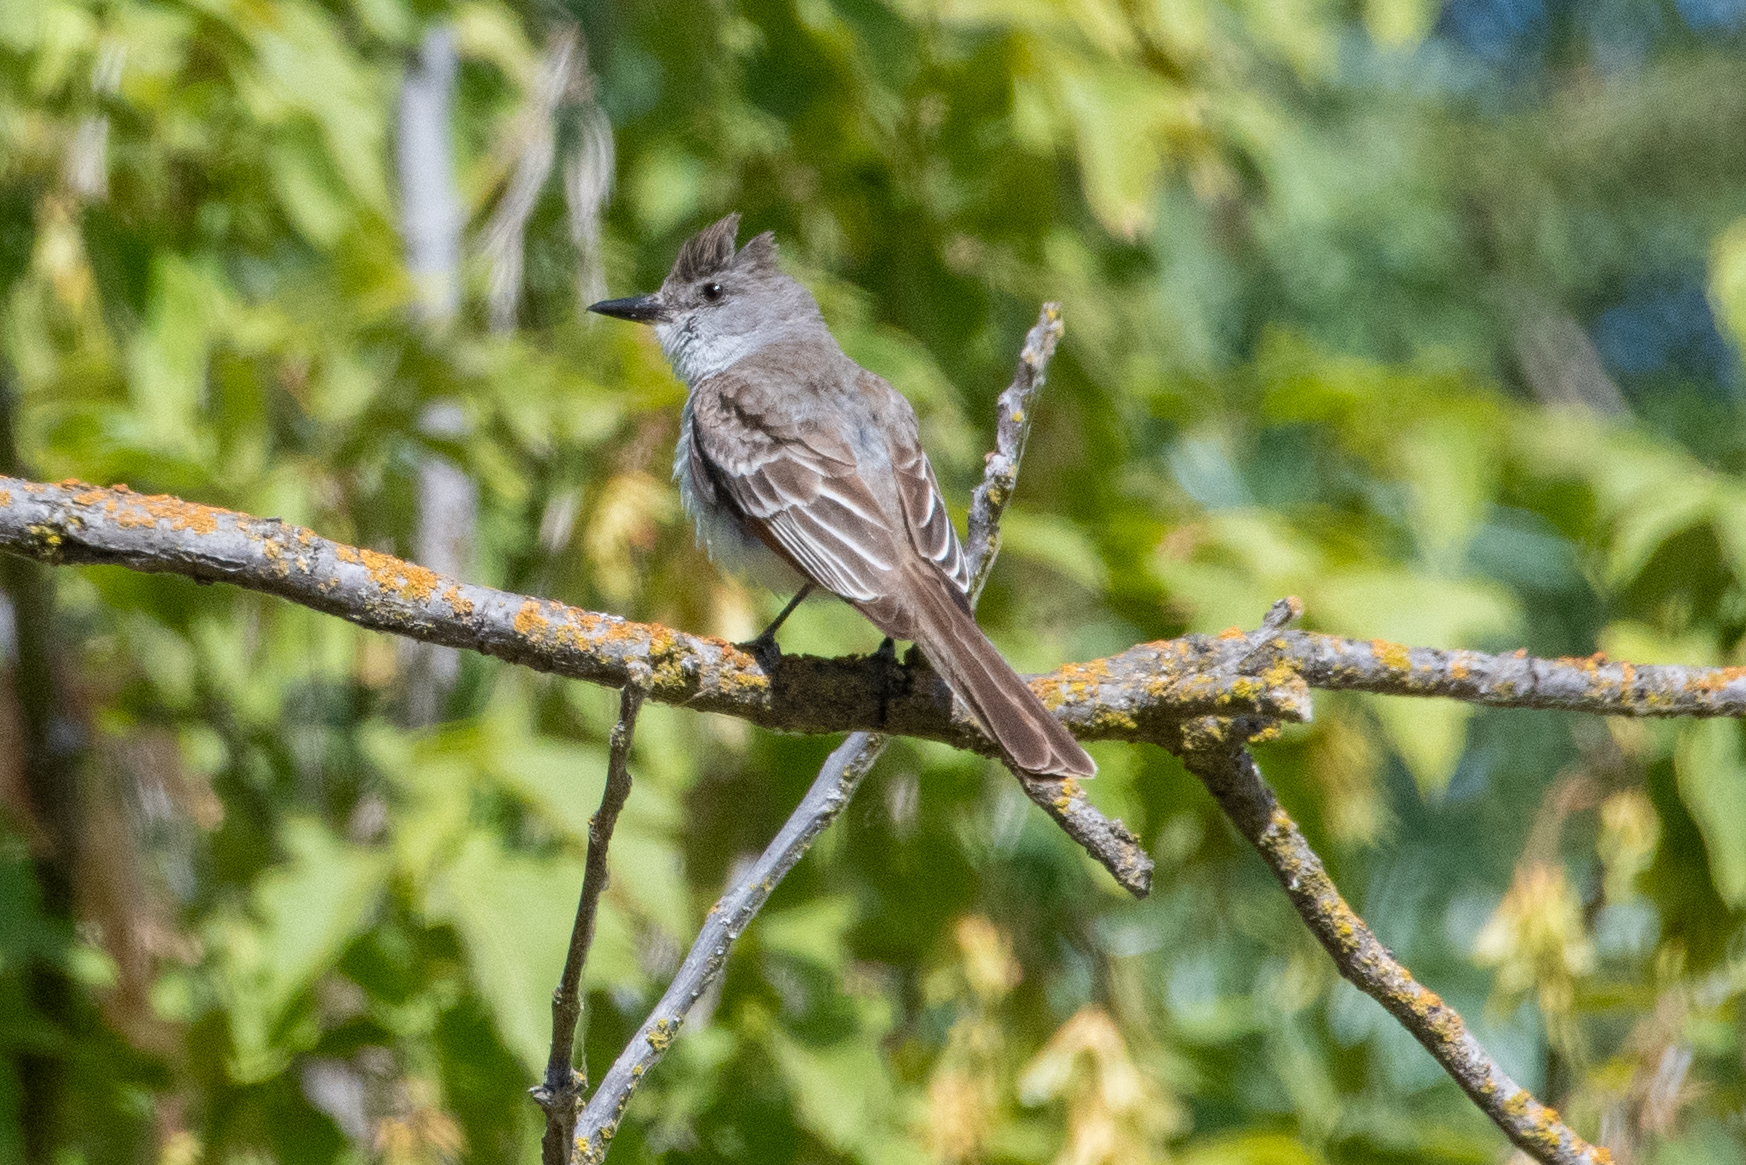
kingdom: Animalia
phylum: Chordata
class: Aves
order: Passeriformes
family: Tyrannidae
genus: Myiarchus
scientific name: Myiarchus cinerascens
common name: Ash-throated flycatcher
